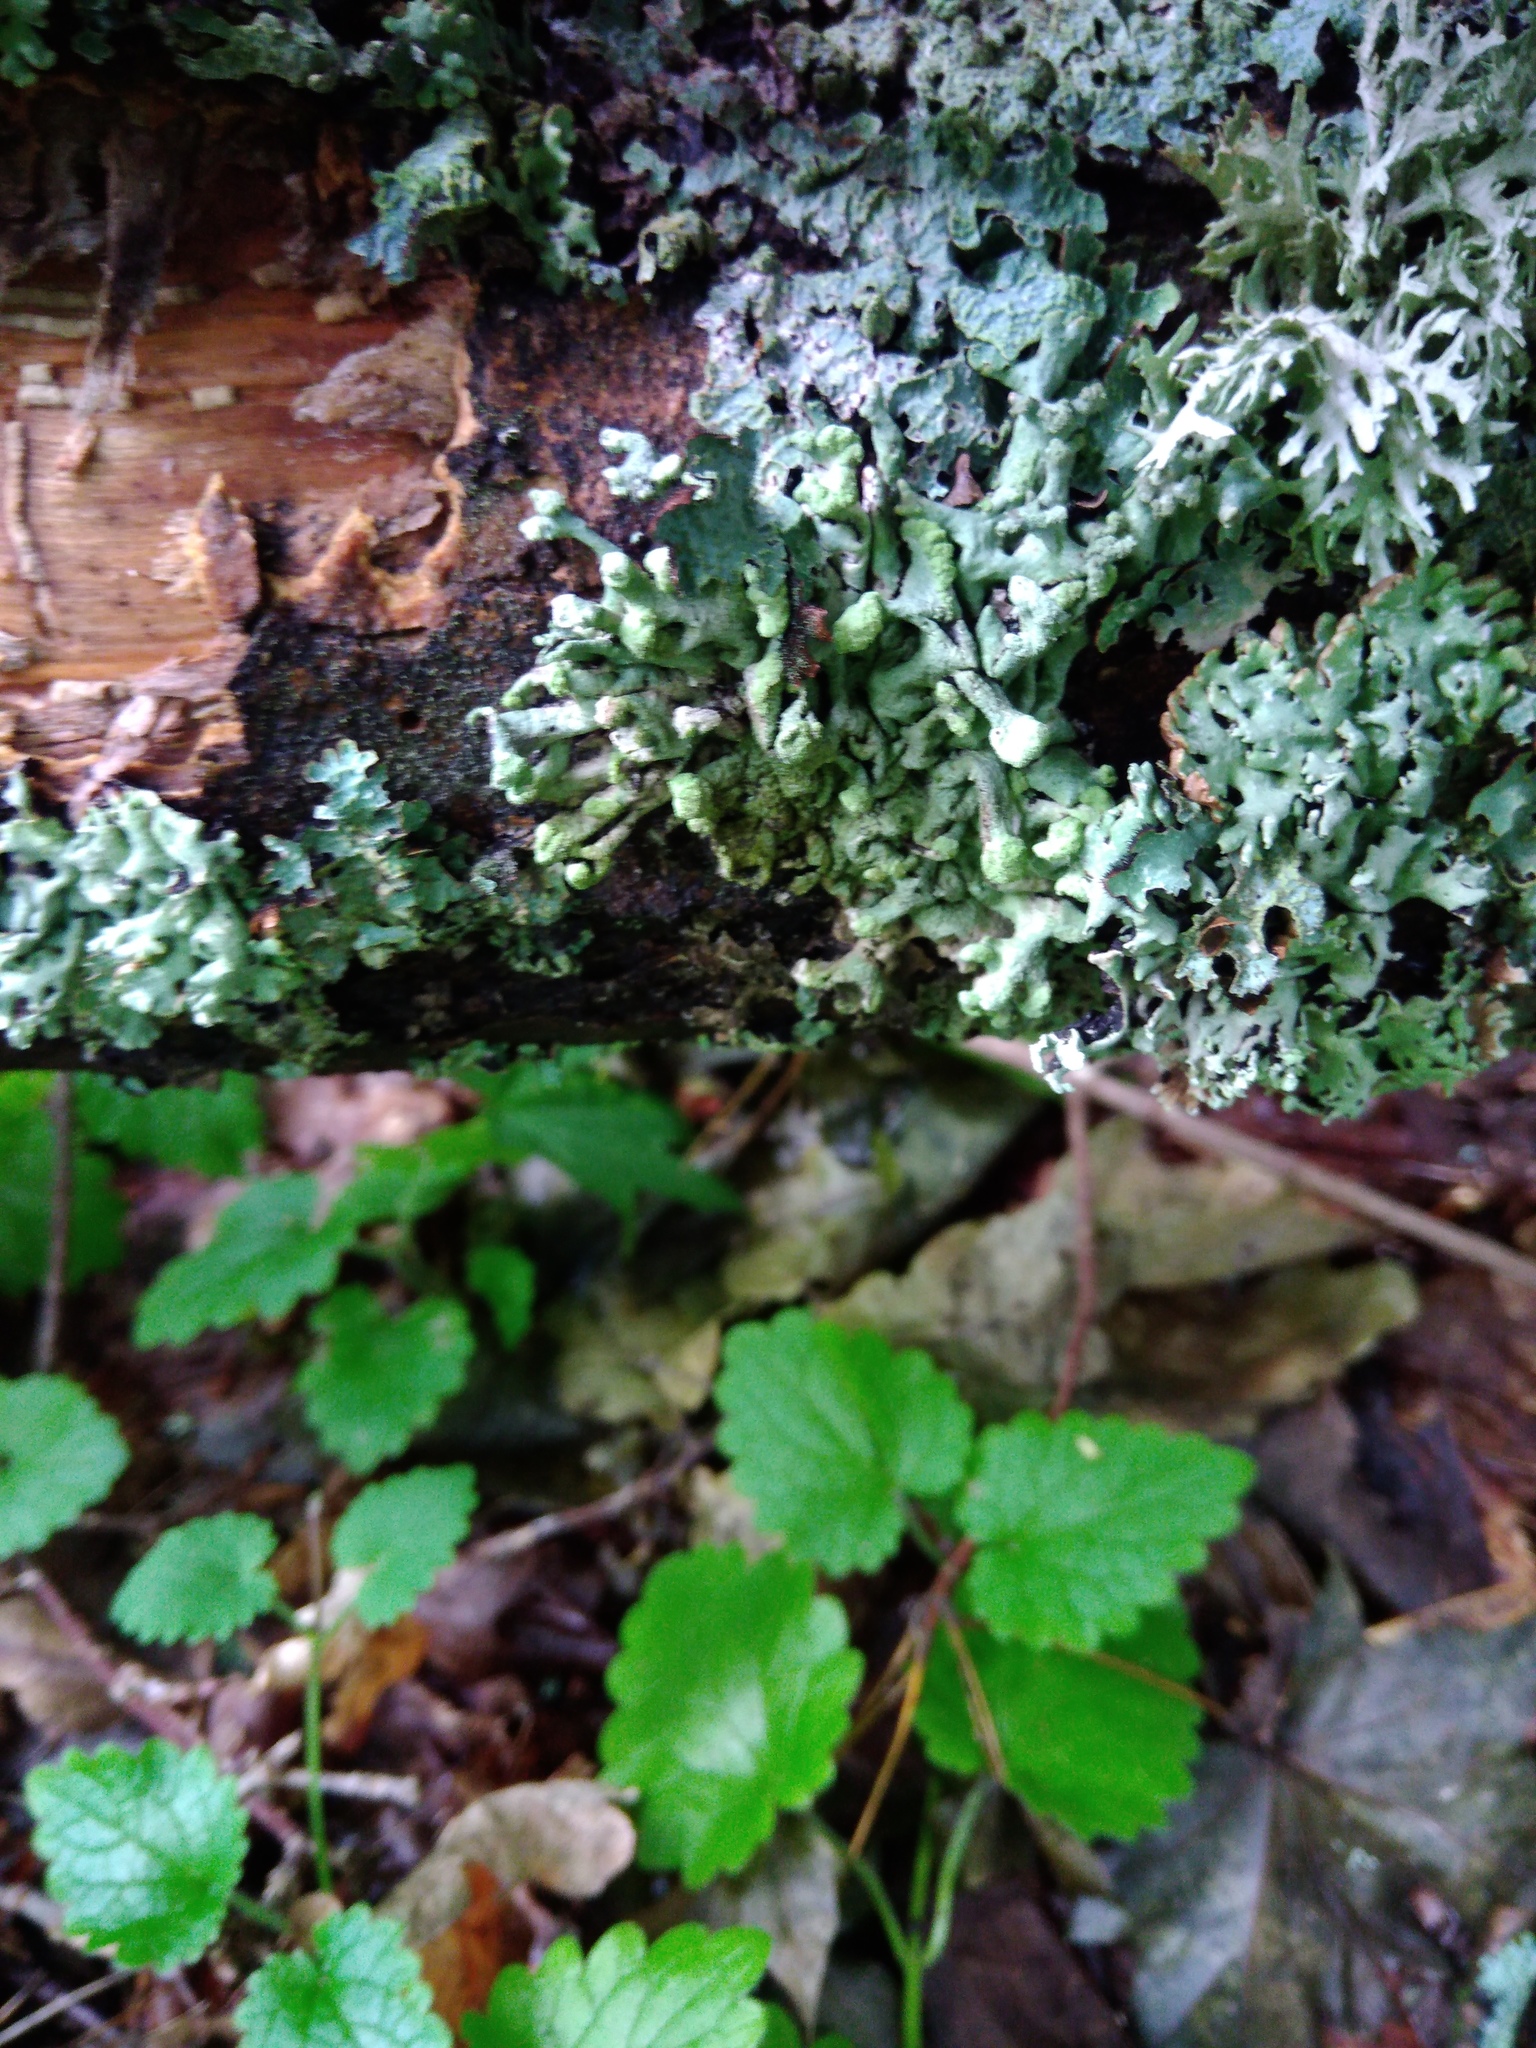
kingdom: Fungi
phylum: Ascomycota
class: Lecanoromycetes
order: Lecanorales
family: Parmeliaceae
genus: Hypogymnia
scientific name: Hypogymnia tubulosa
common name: Powder-headed tube lichen
